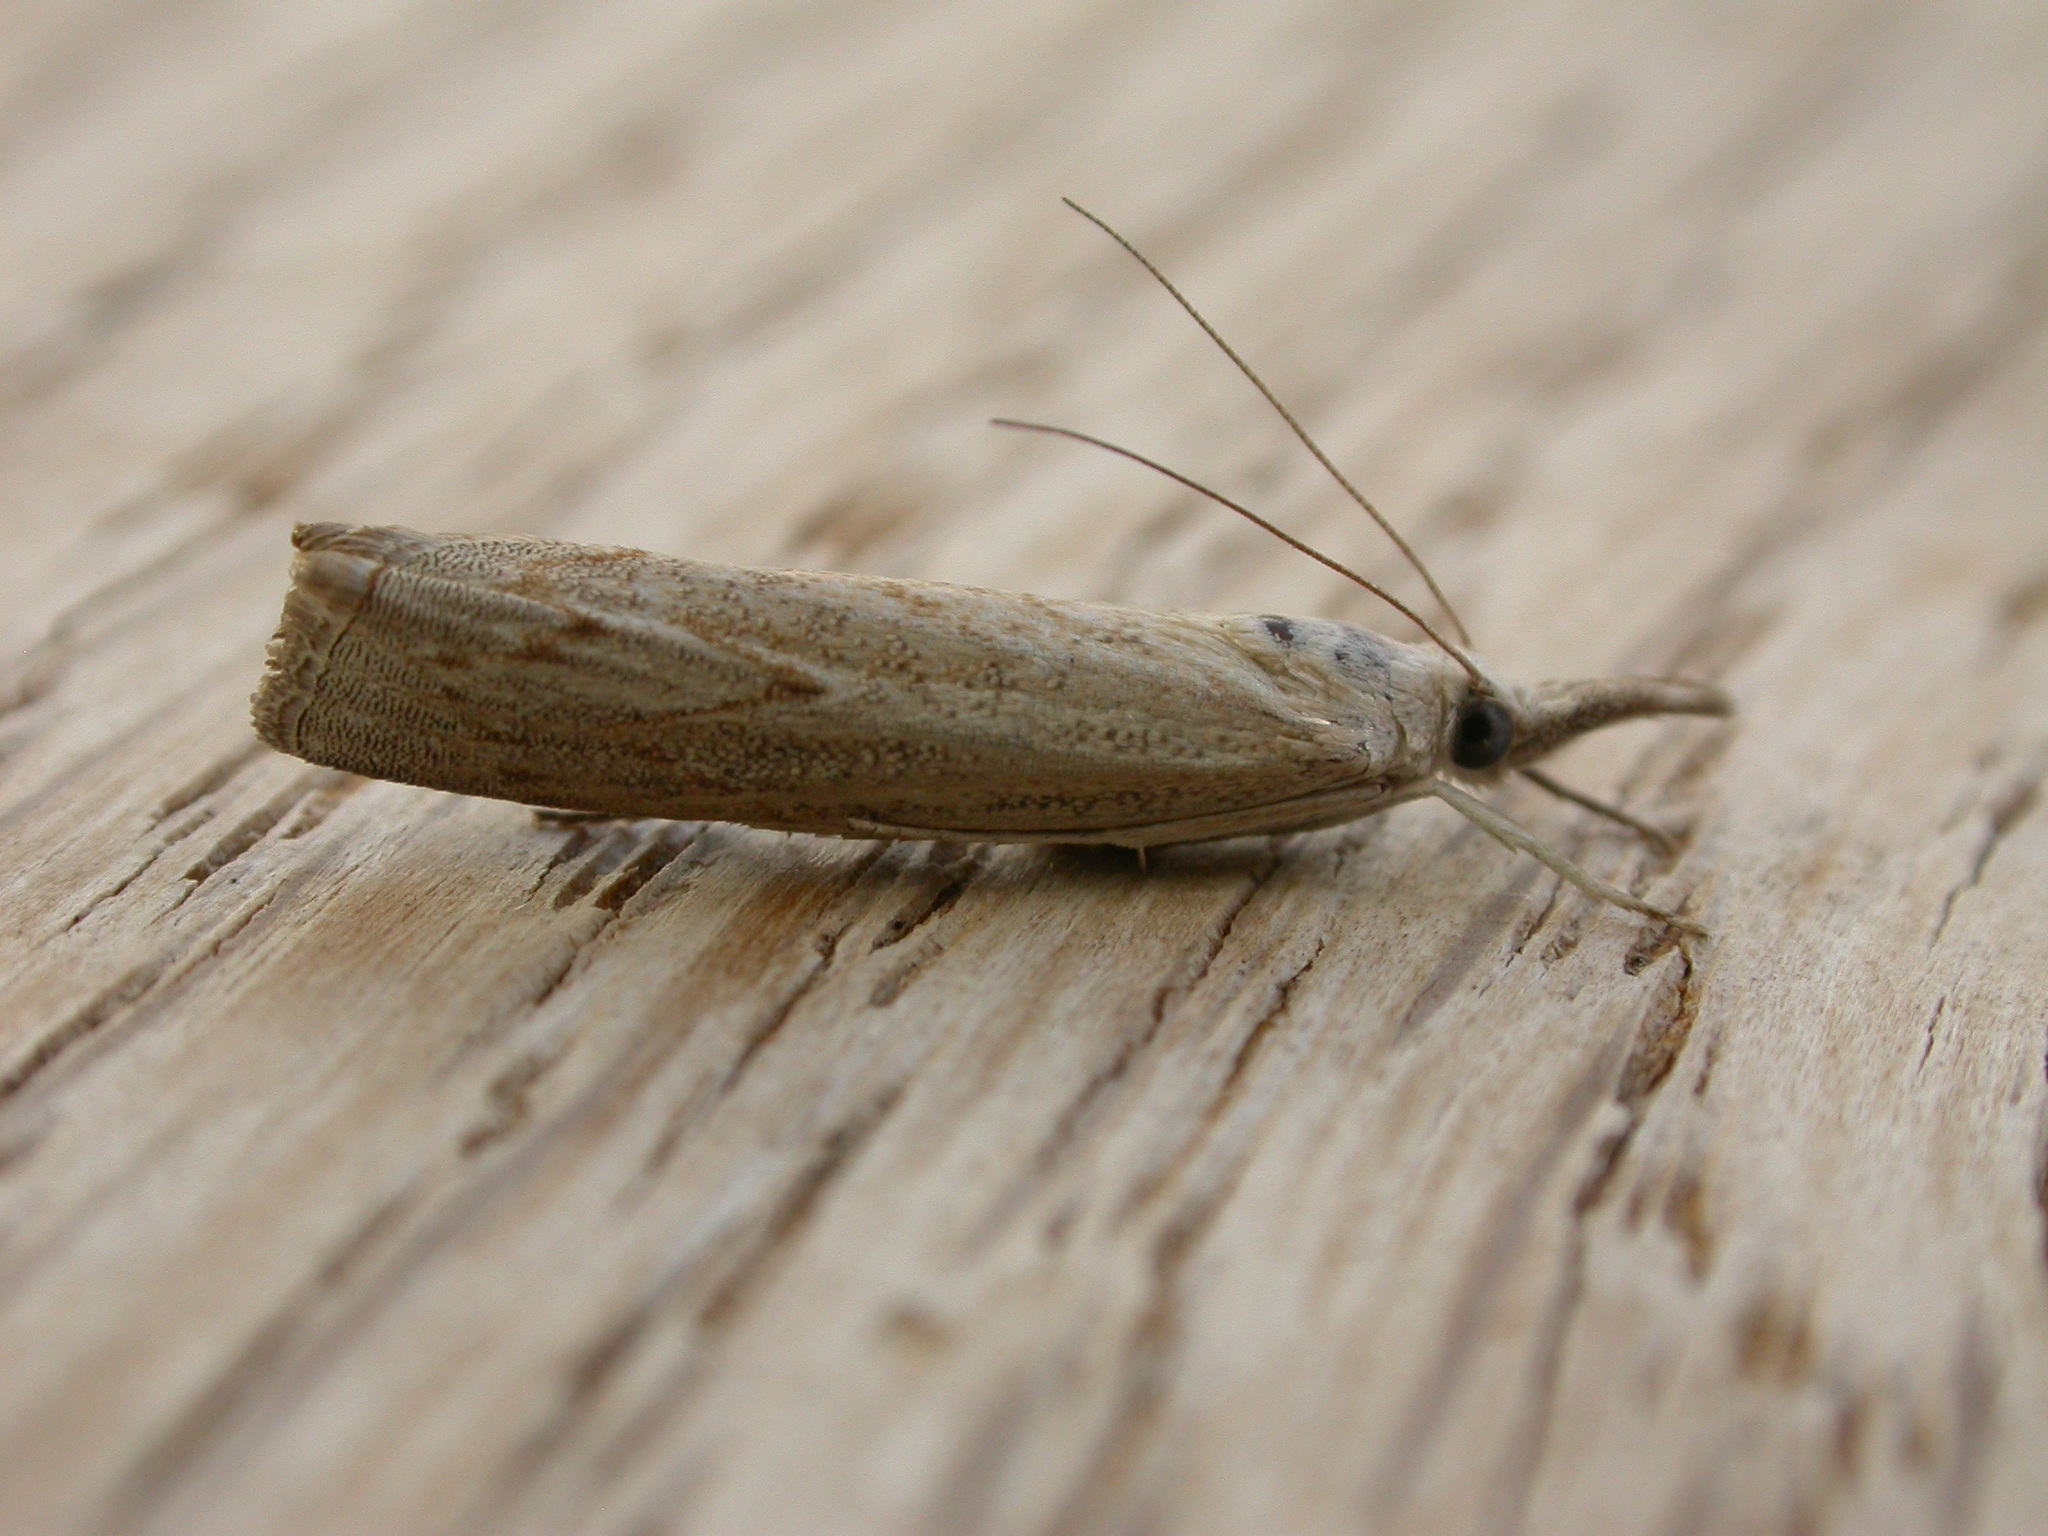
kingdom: Animalia
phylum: Arthropoda
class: Insecta
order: Lepidoptera
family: Crambidae
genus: Culladia
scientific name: Culladia cuneiferellus
